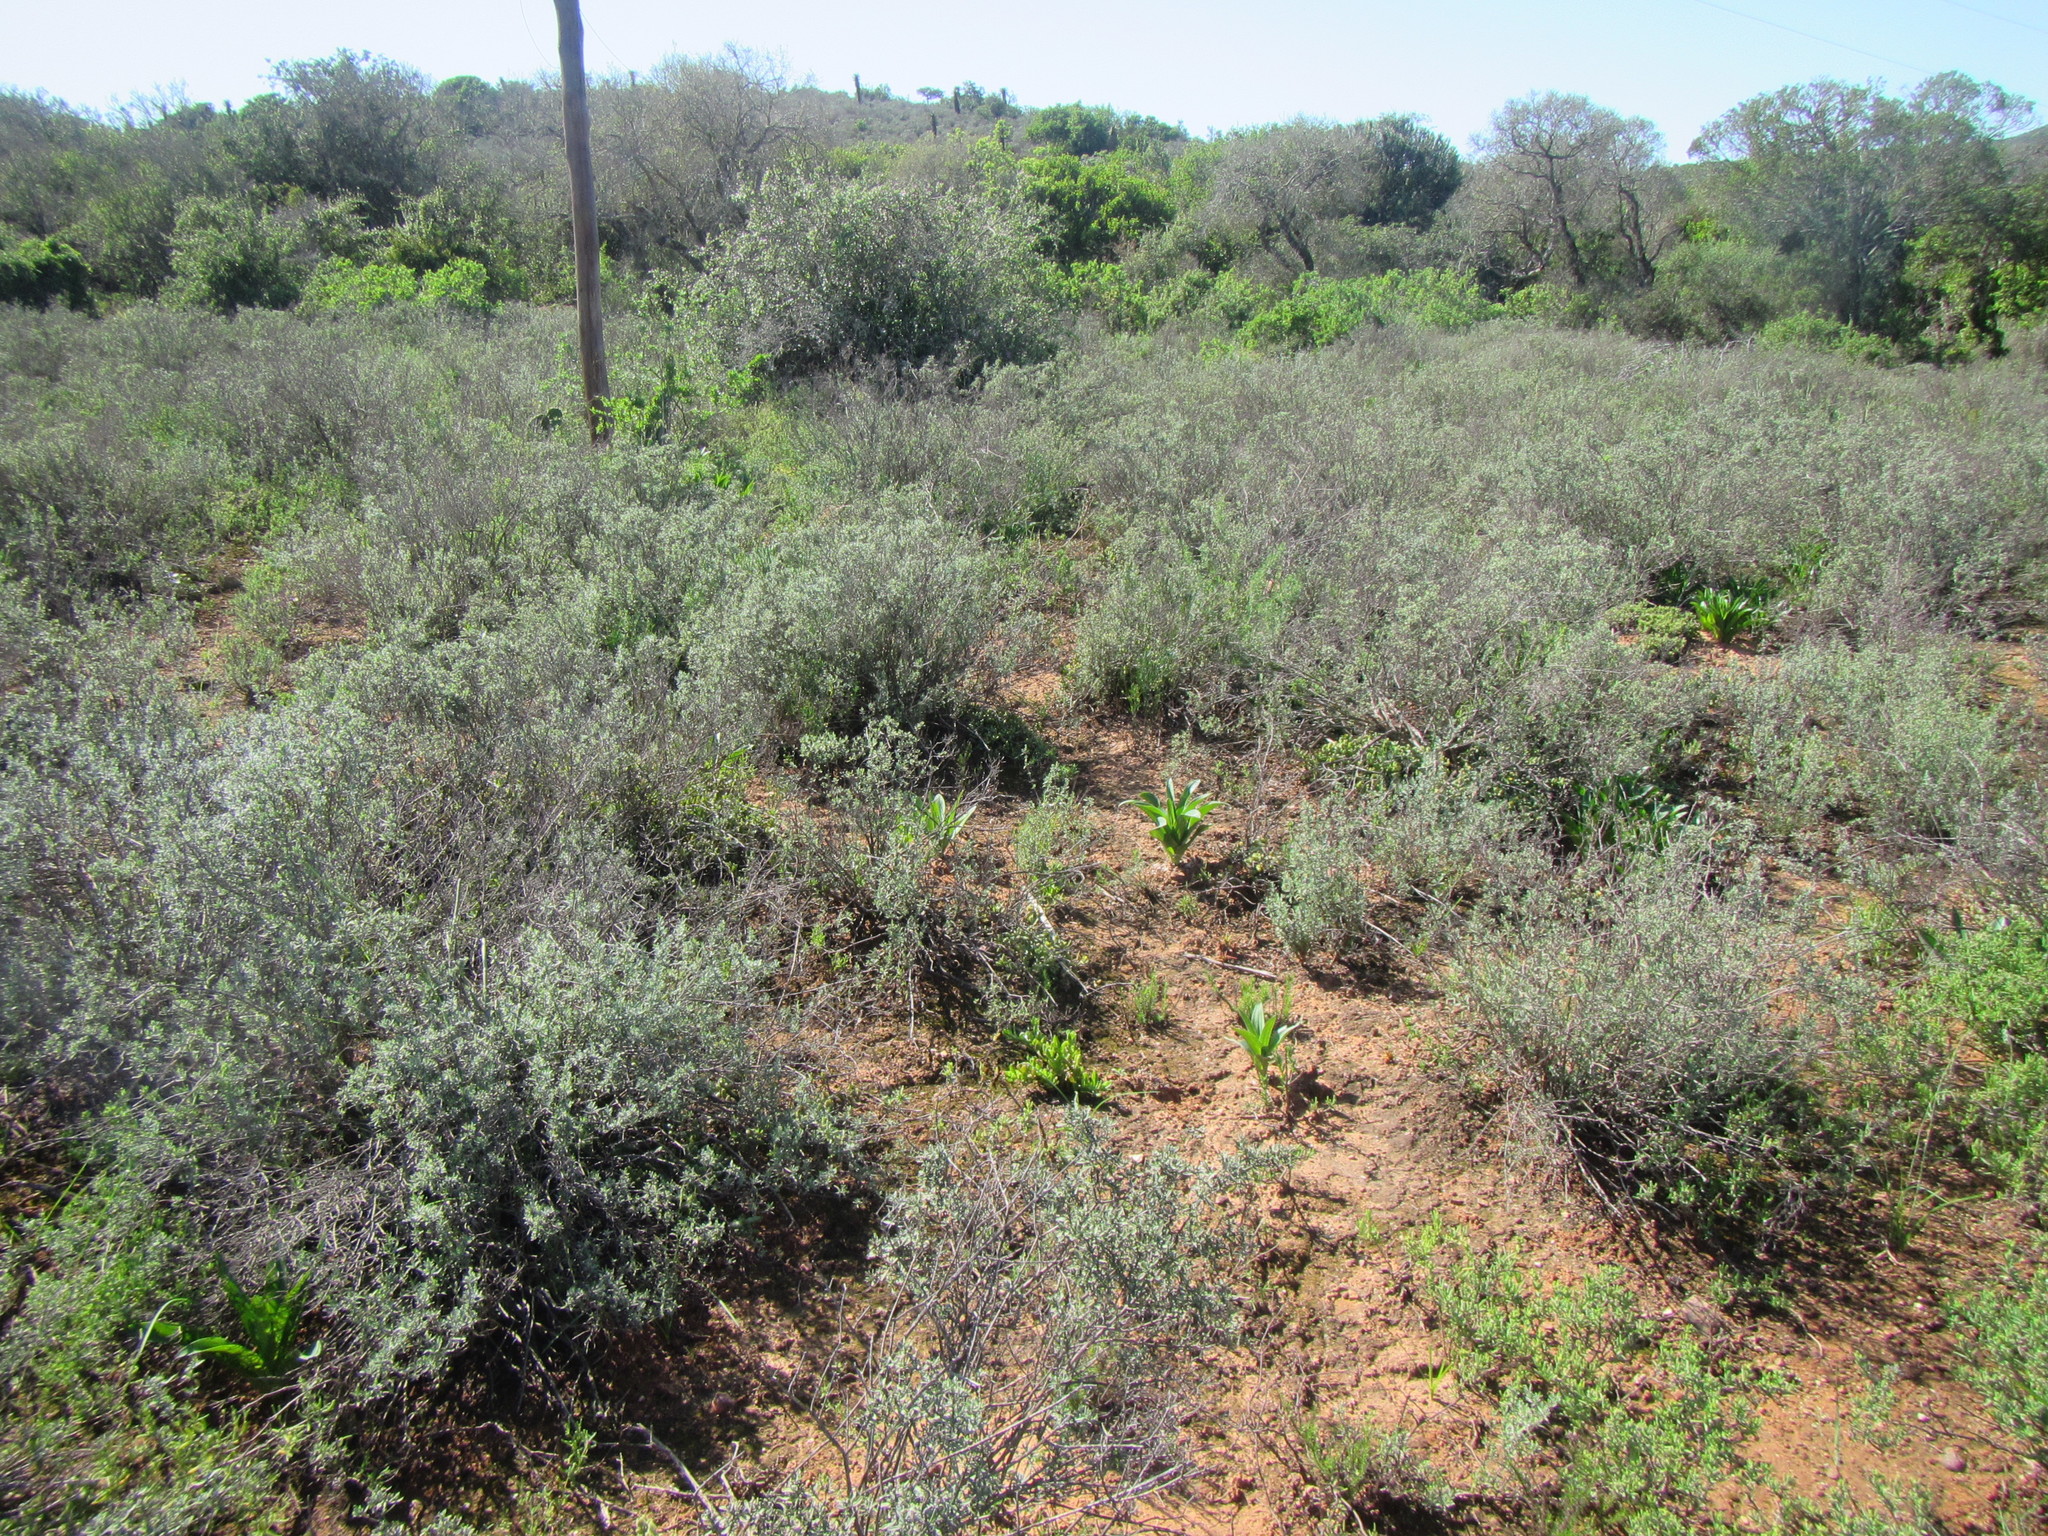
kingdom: Plantae
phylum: Tracheophyta
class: Magnoliopsida
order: Caryophyllales
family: Aizoaceae
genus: Delosperma
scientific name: Delosperma echinatum
